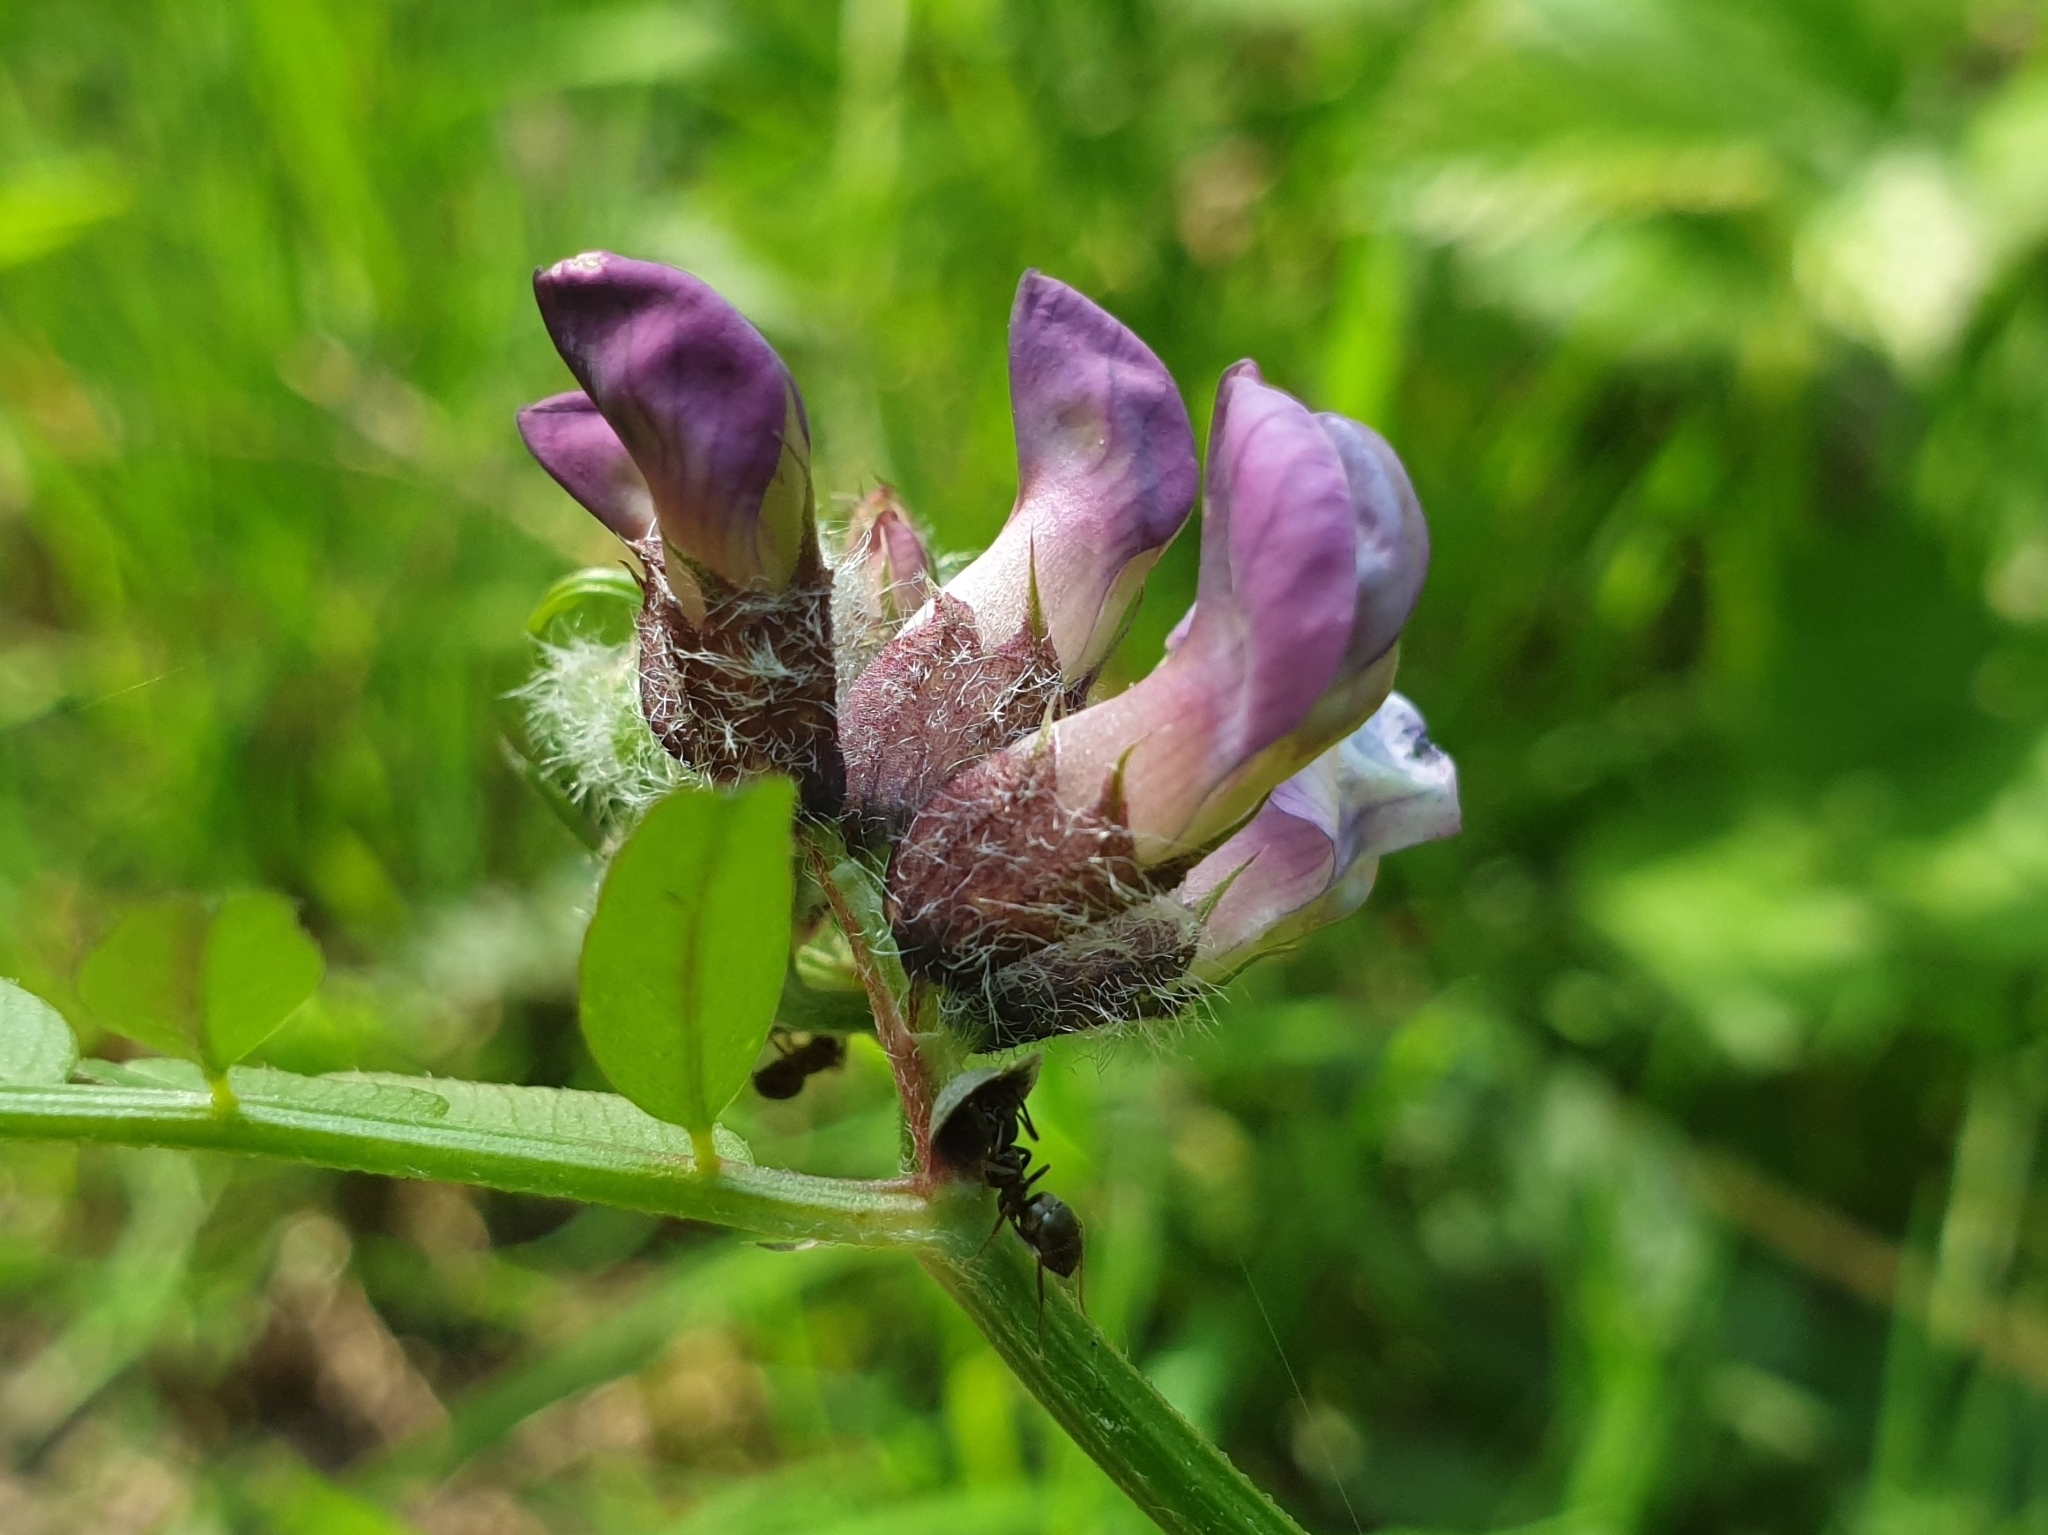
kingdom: Plantae
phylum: Tracheophyta
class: Magnoliopsida
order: Fabales
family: Fabaceae
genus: Vicia
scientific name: Vicia sepium
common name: Bush vetch
